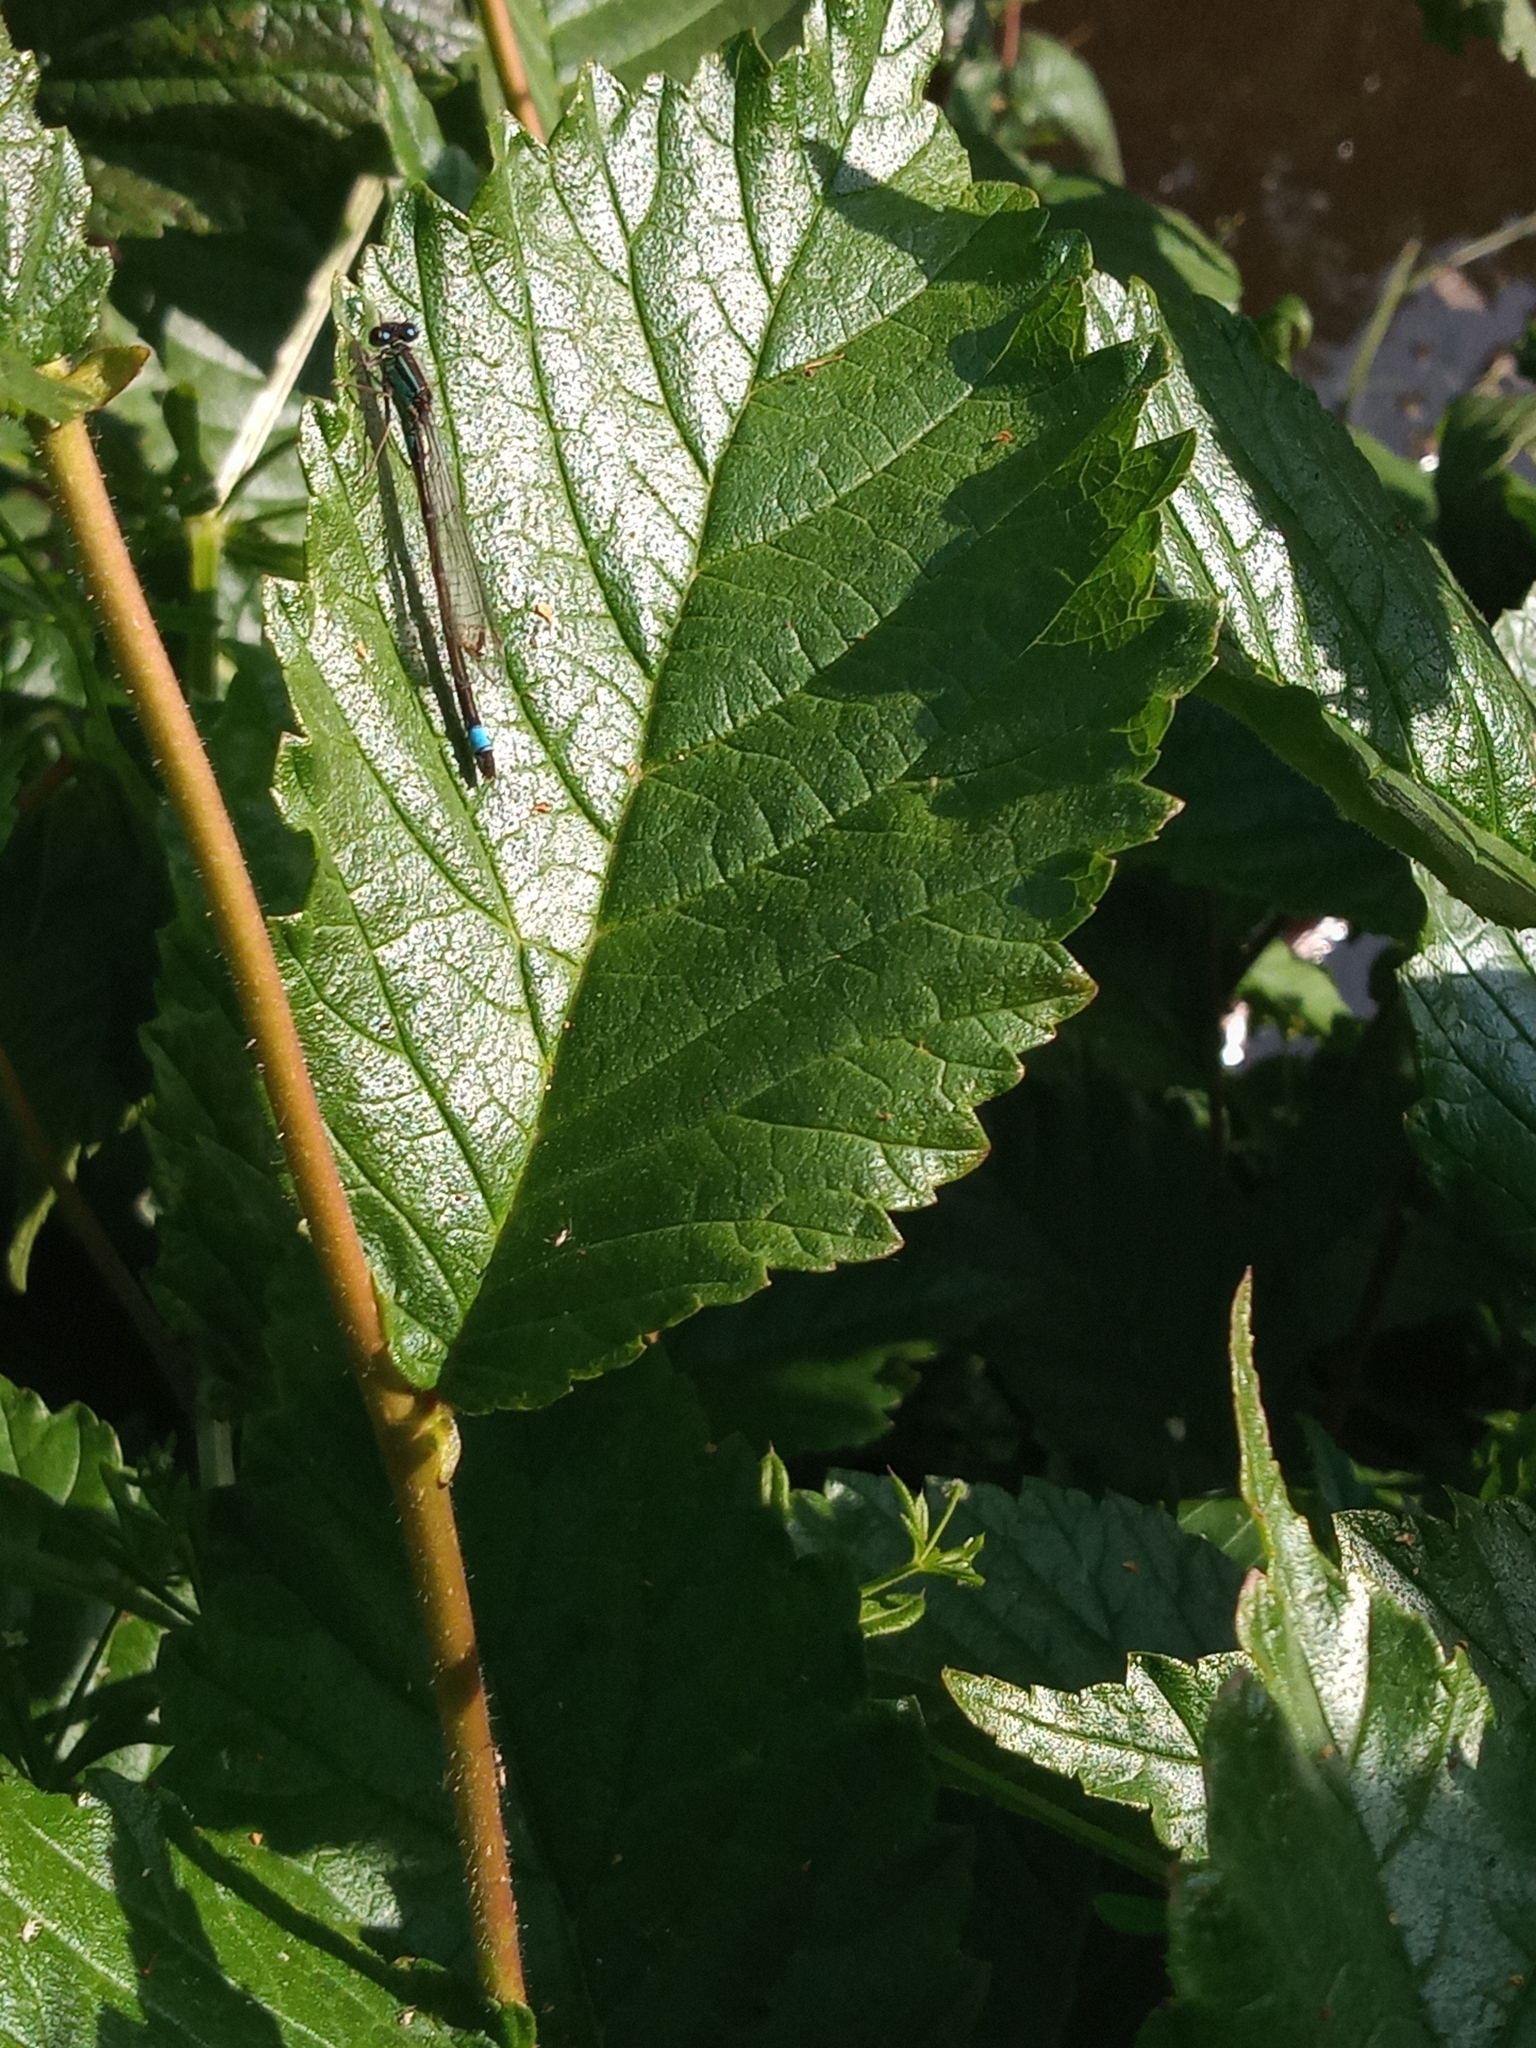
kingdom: Animalia
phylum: Arthropoda
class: Insecta
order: Odonata
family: Coenagrionidae
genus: Ischnura
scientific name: Ischnura elegans
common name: Blue-tailed damselfly
